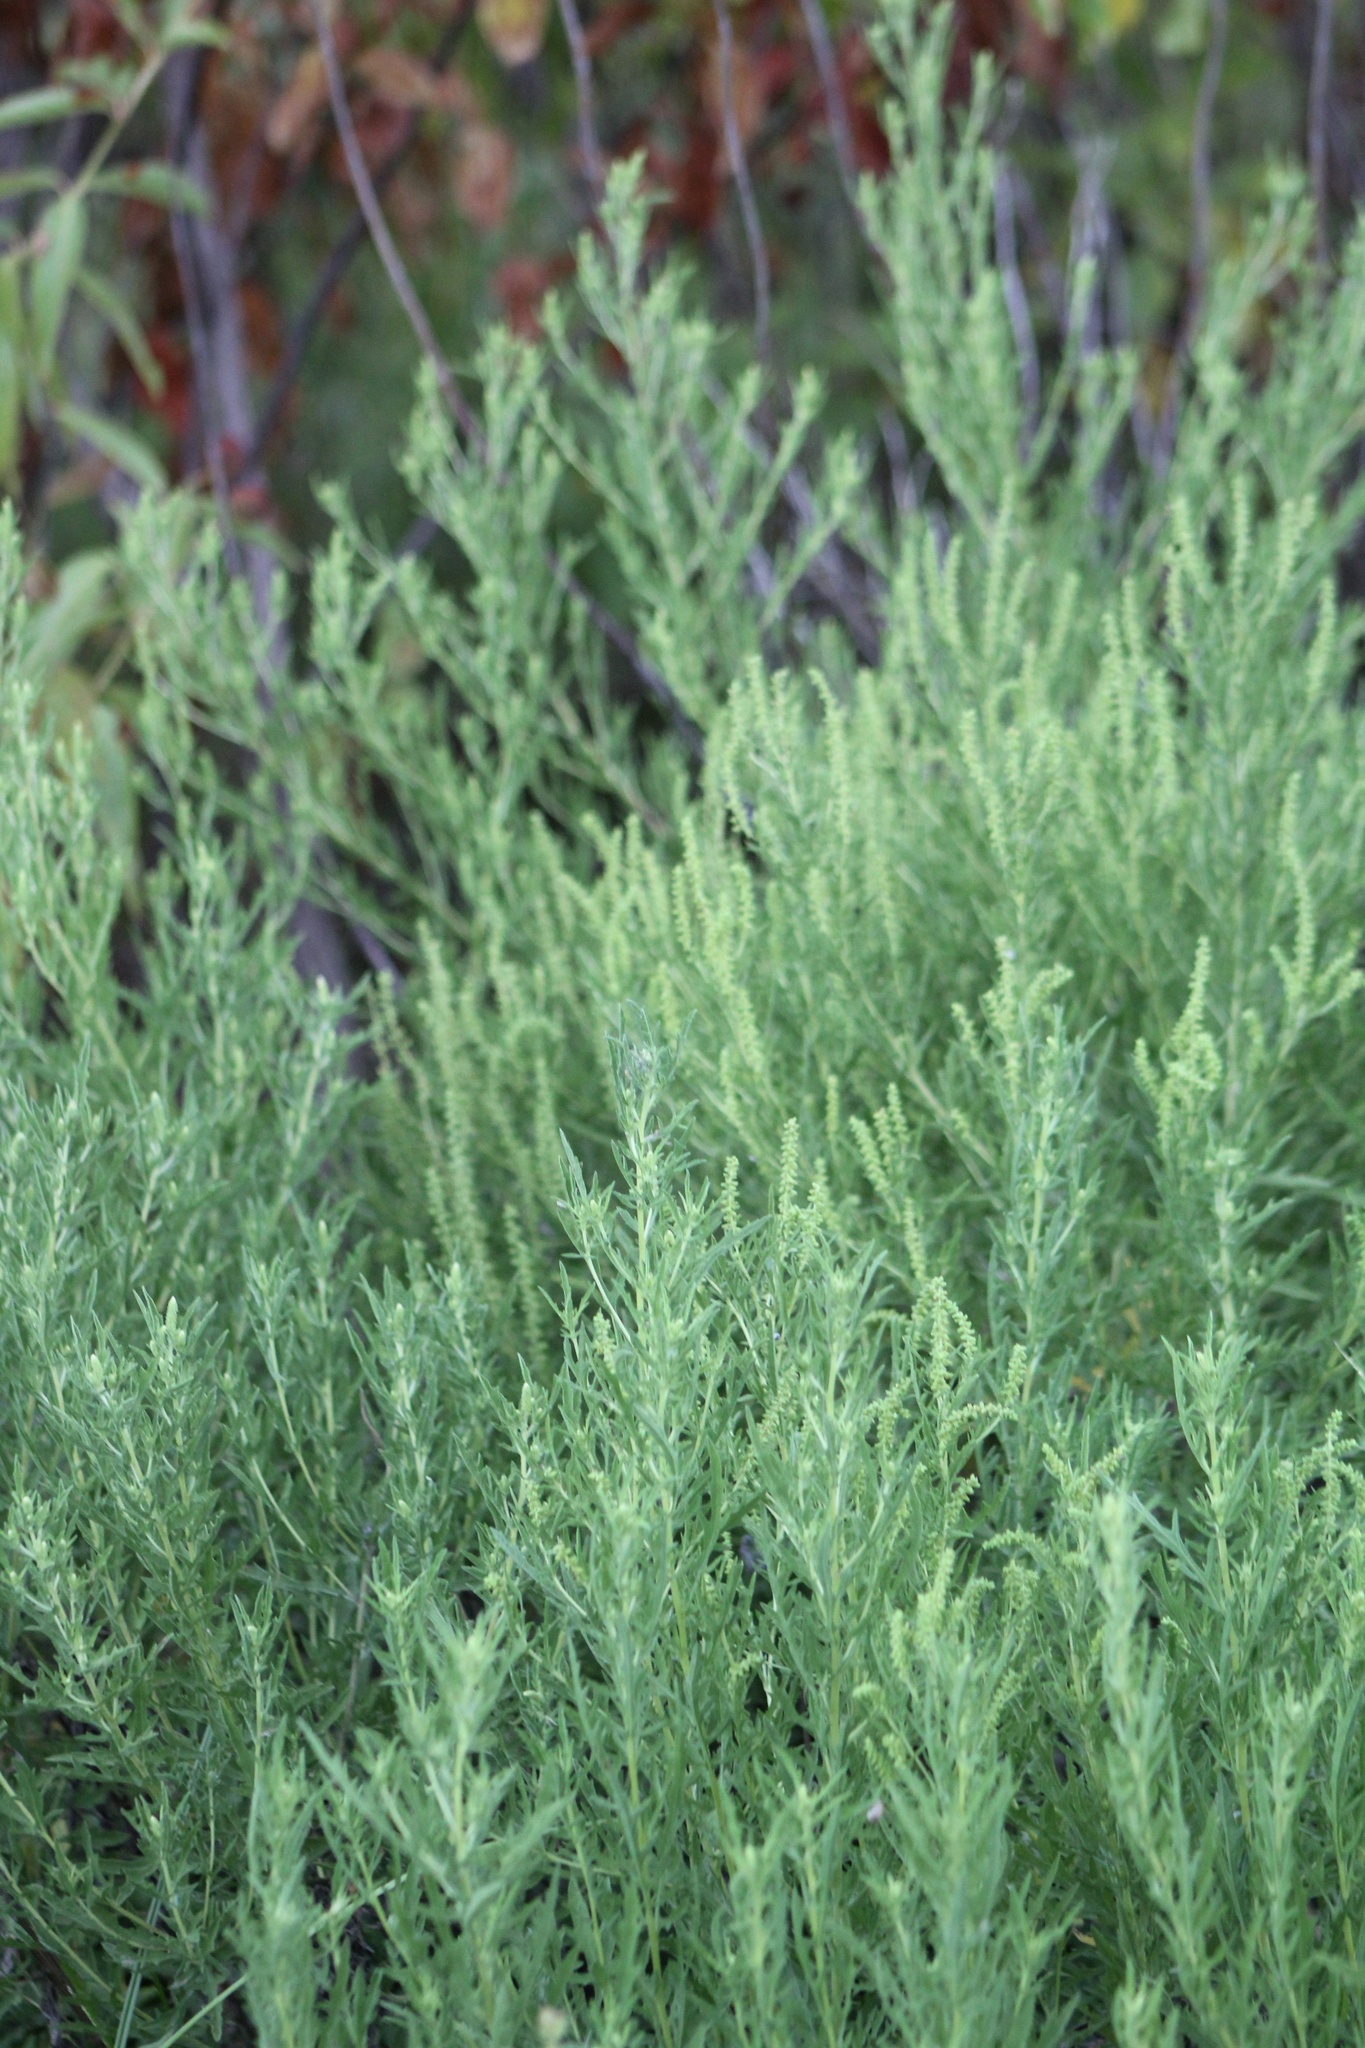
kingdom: Plantae
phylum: Tracheophyta
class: Magnoliopsida
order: Asterales
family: Asteraceae
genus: Ambrosia
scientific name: Ambrosia psilostachya
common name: Perennial ragweed
